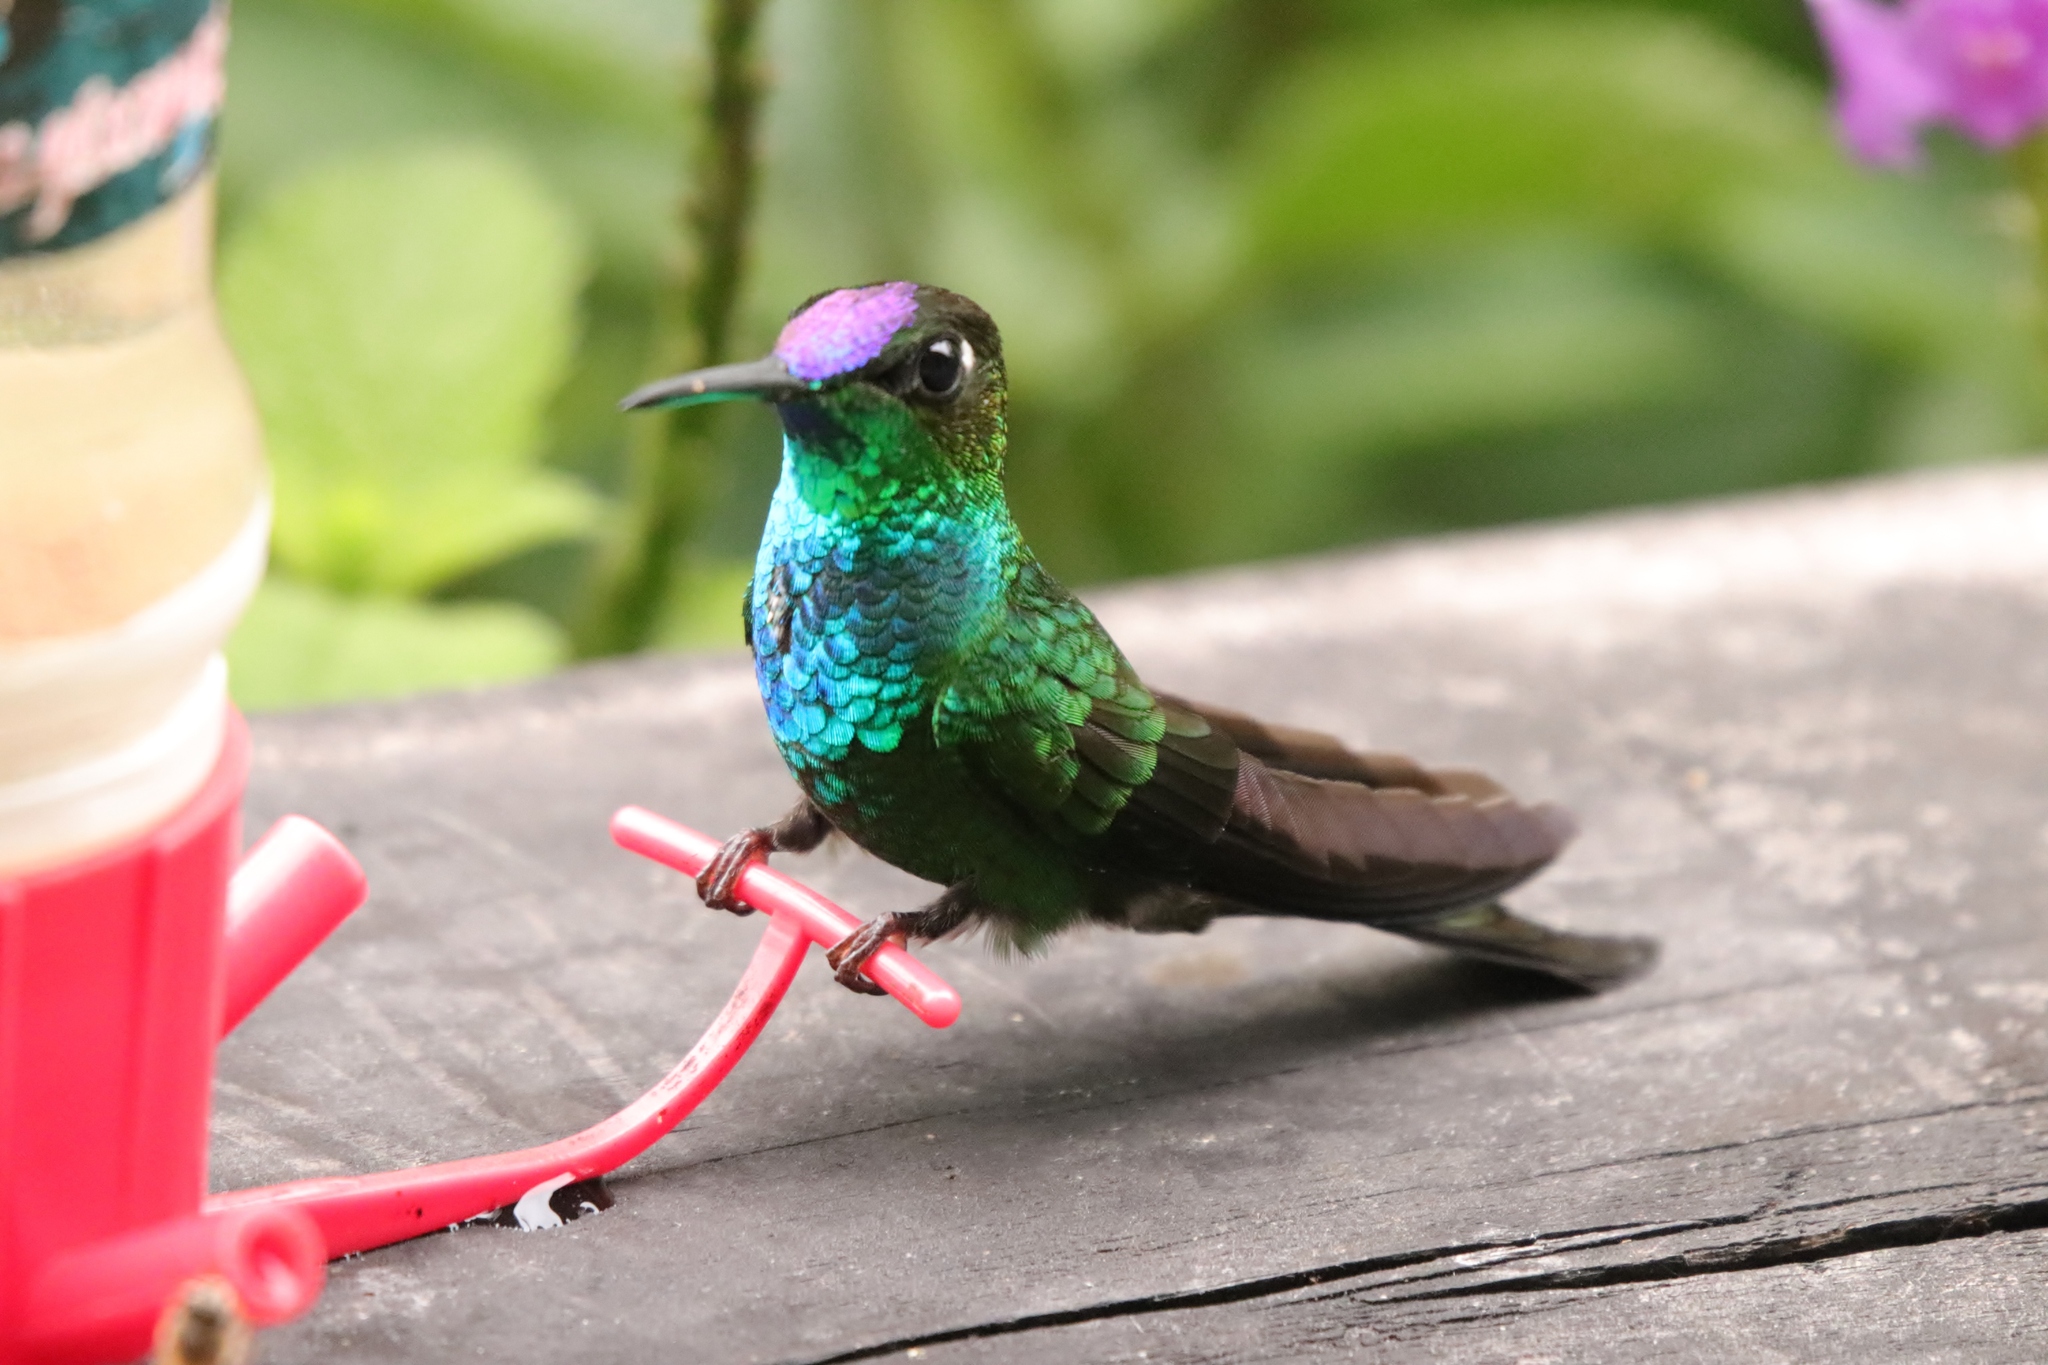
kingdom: Animalia
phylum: Chordata
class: Aves
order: Apodiformes
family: Trochilidae
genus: Heliodoxa
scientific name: Heliodoxa leadbeateri
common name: Violet-fronted brilliant
